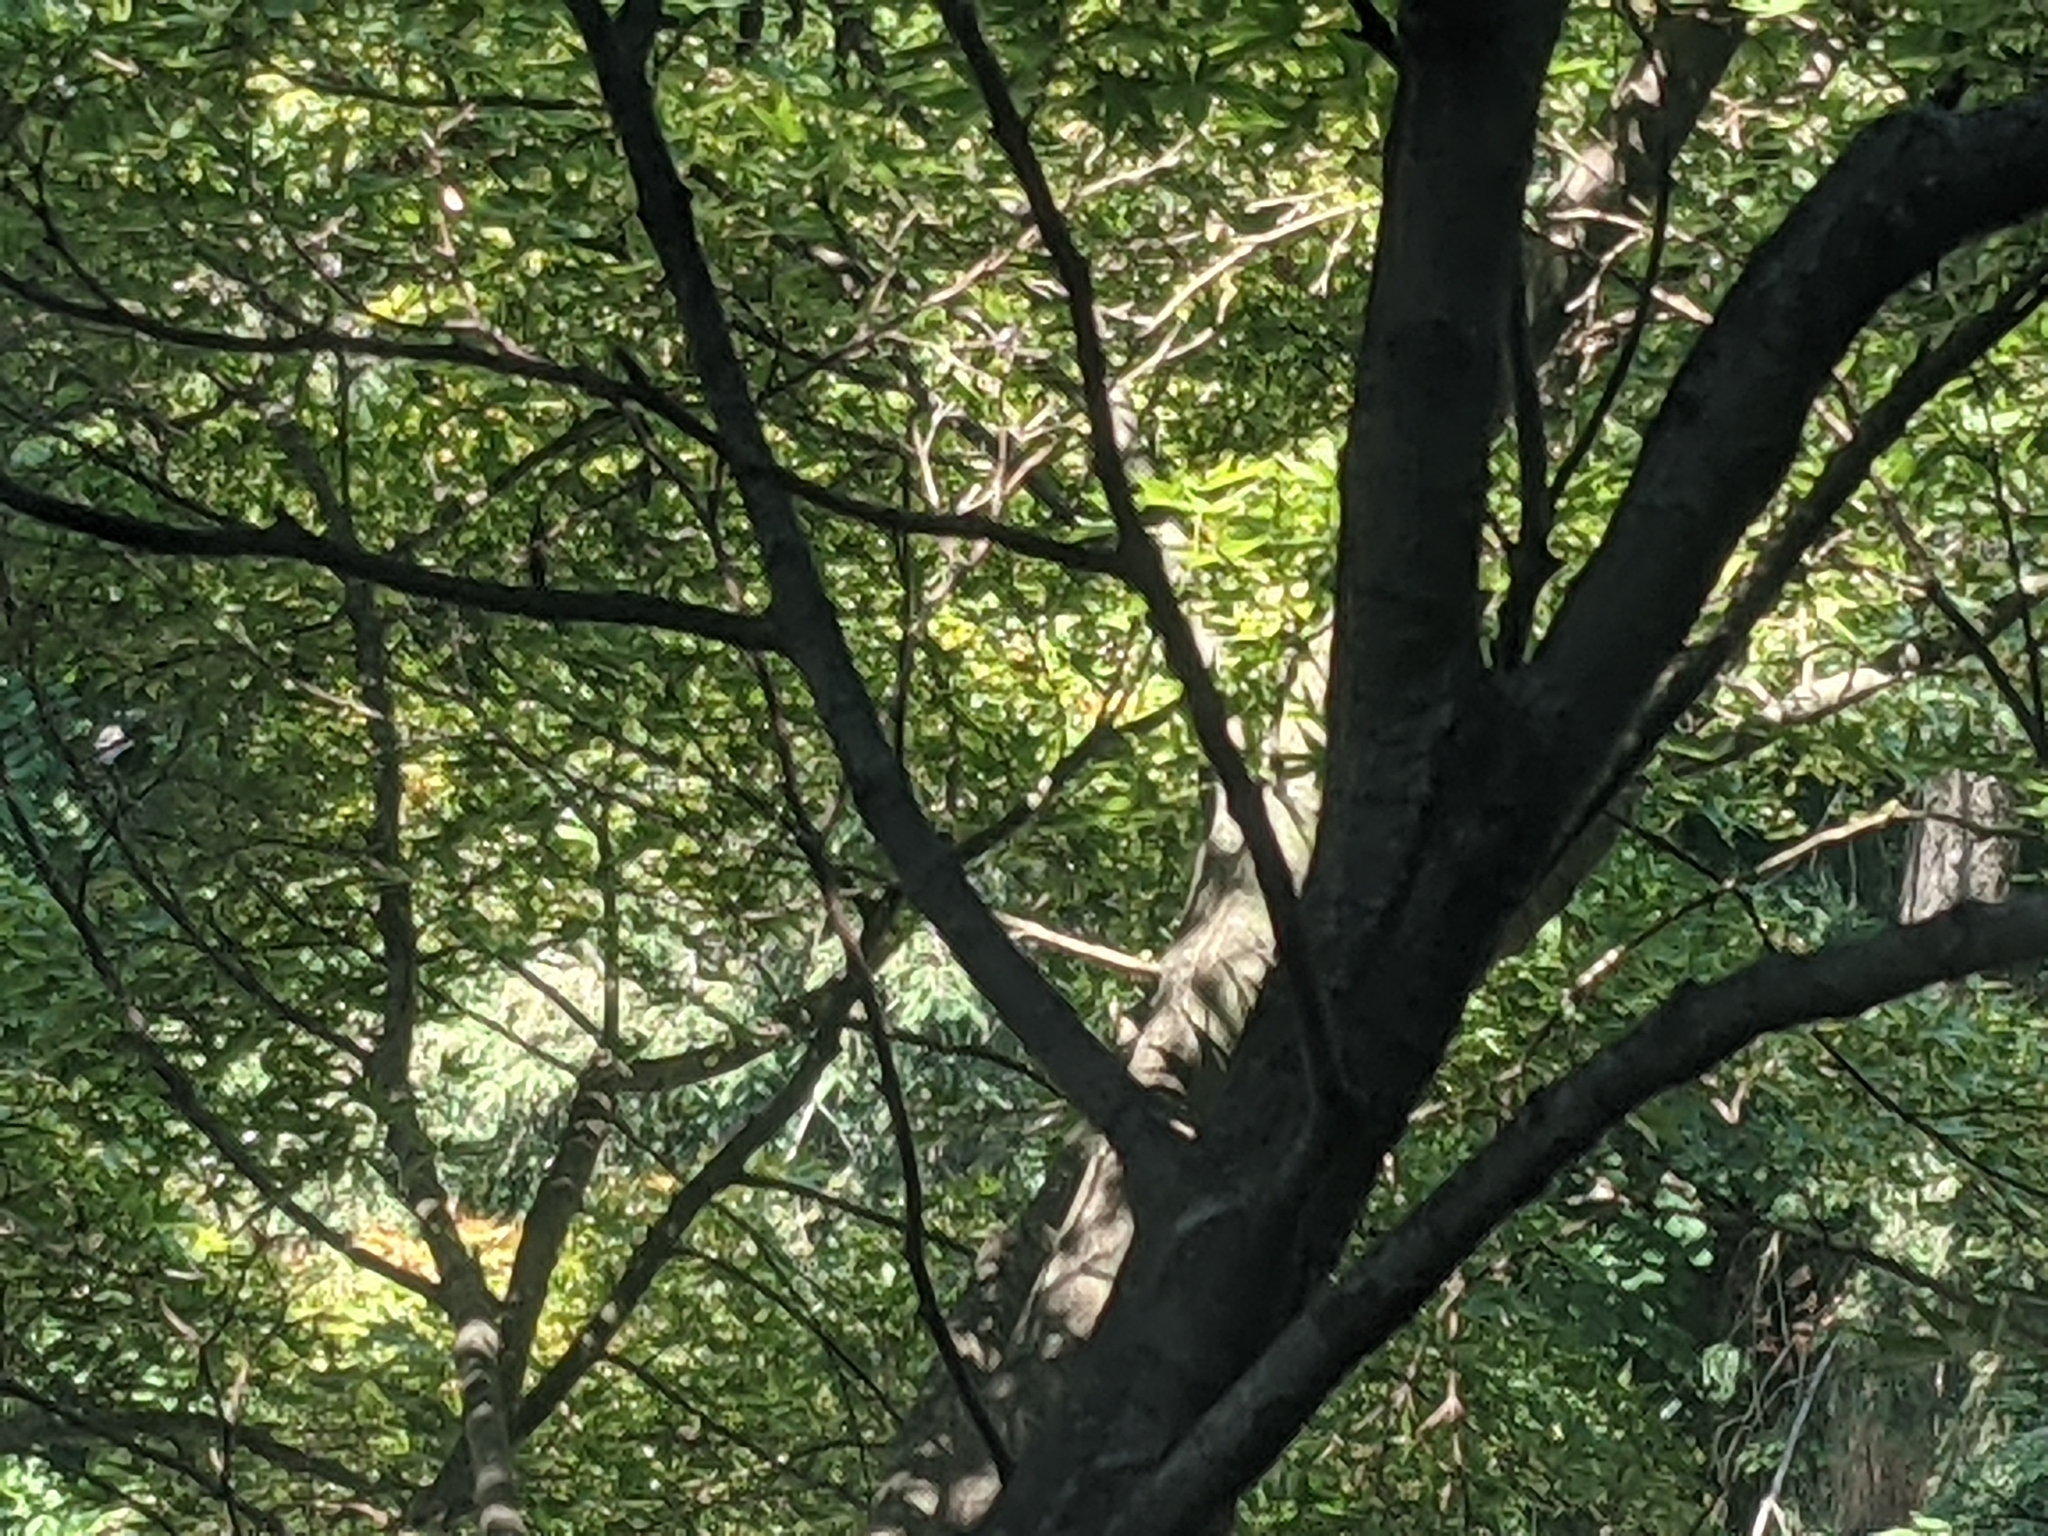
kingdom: Animalia
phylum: Chordata
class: Aves
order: Passeriformes
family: Corvidae
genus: Cyanocitta
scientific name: Cyanocitta cristata
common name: Blue jay
